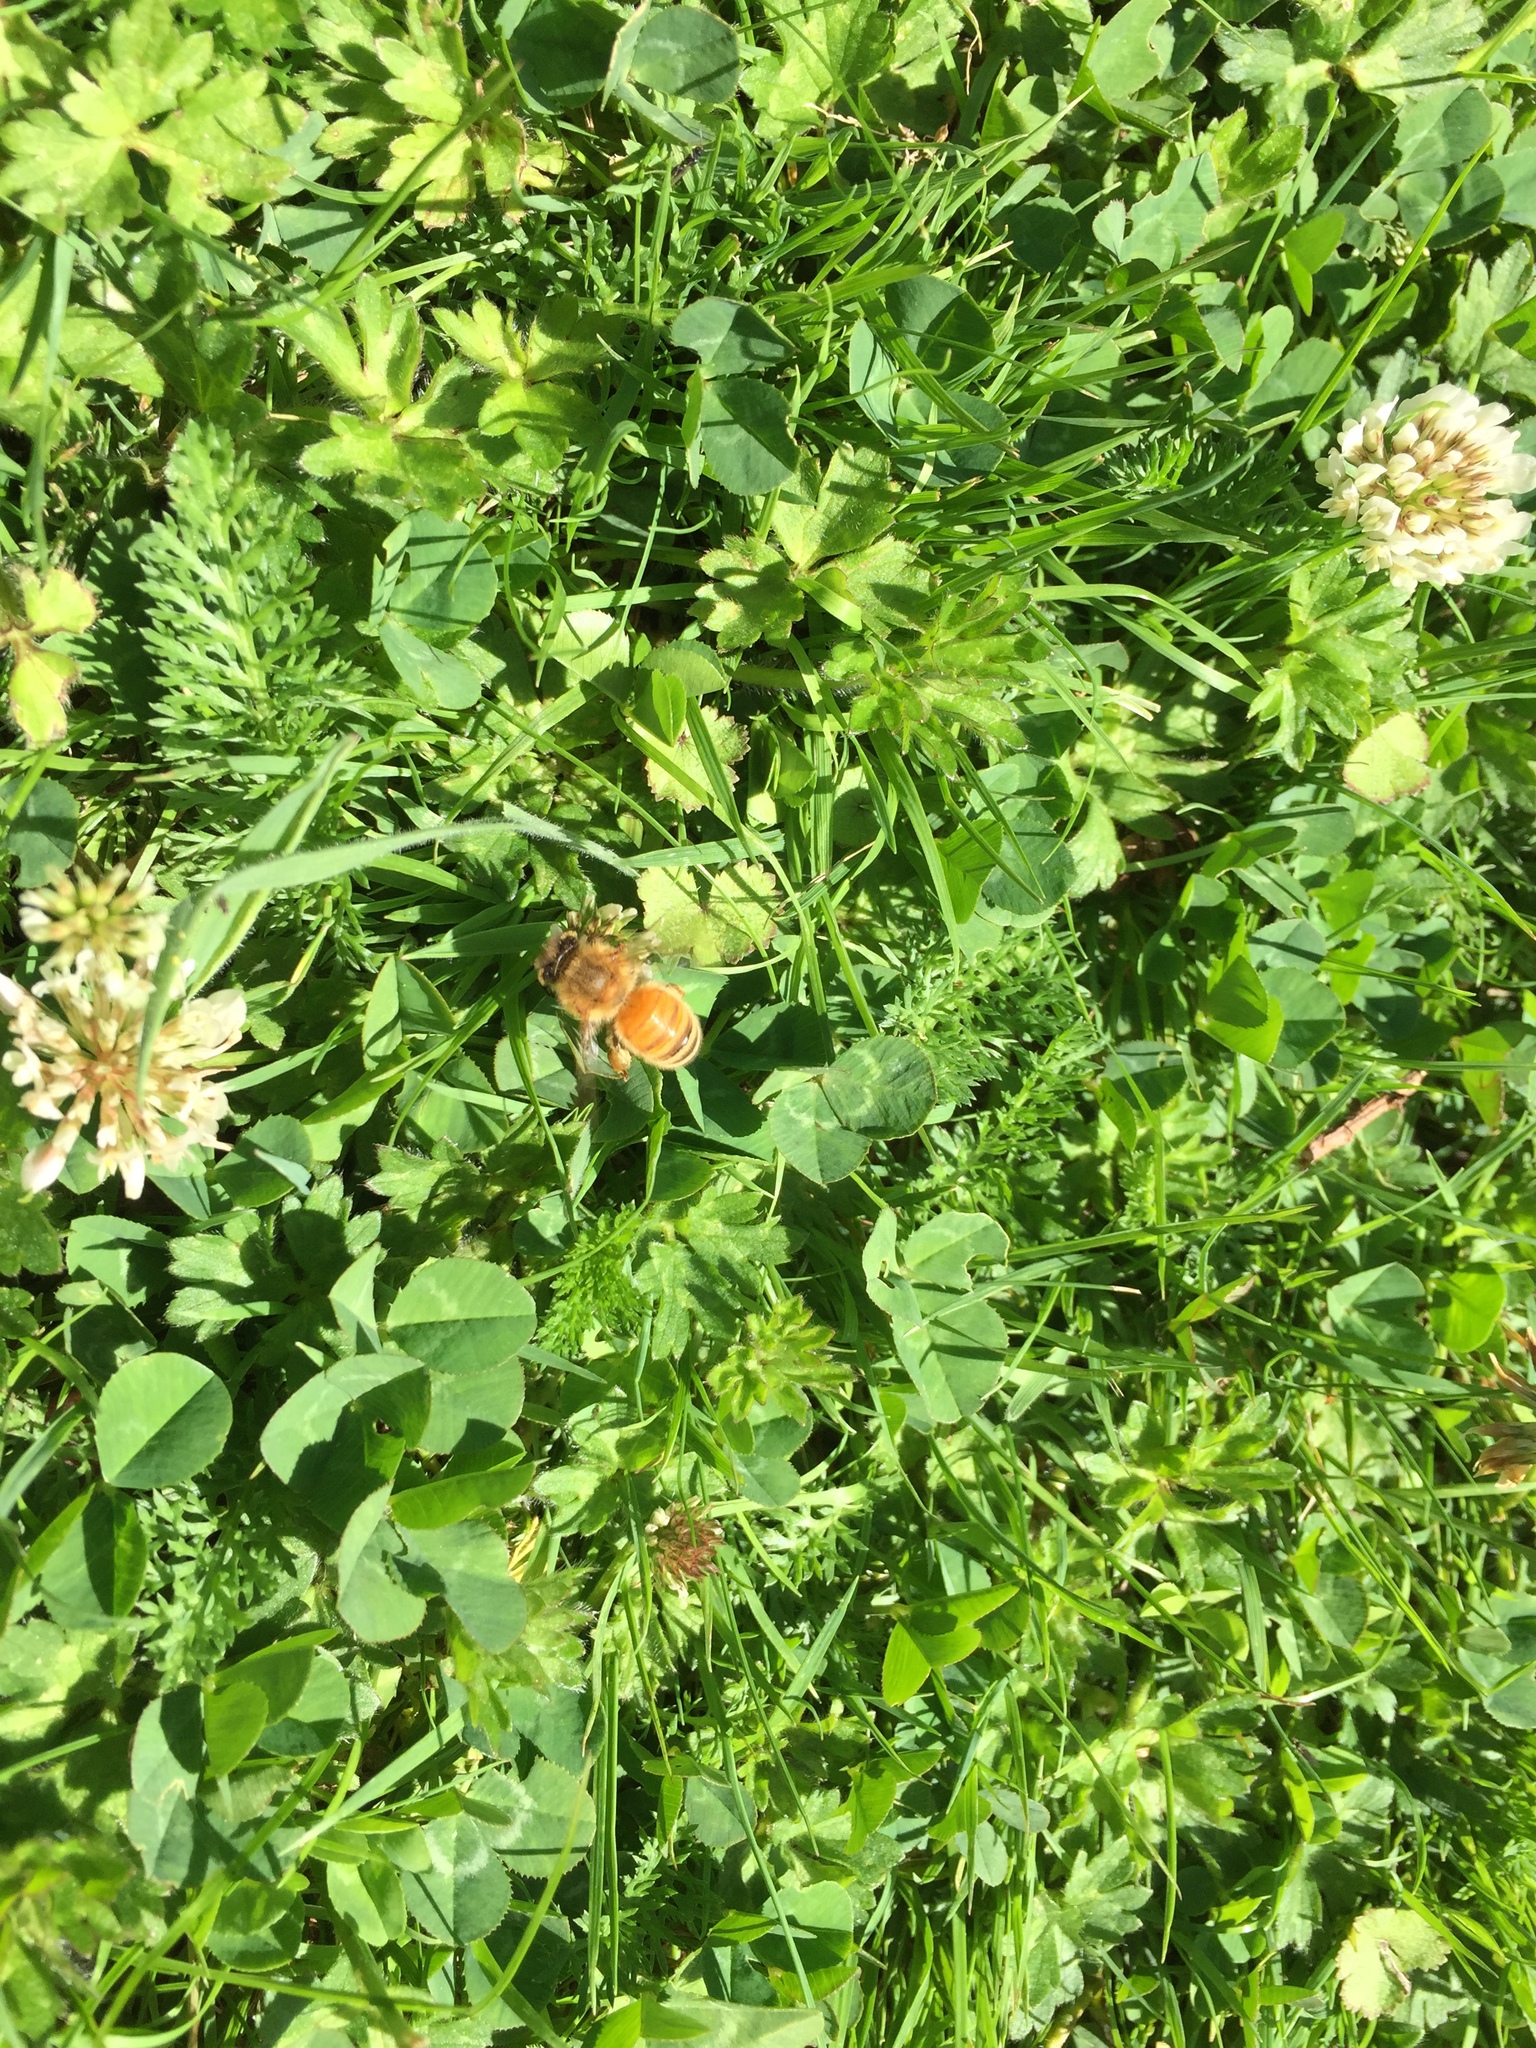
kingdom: Animalia
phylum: Arthropoda
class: Insecta
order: Hymenoptera
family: Apidae
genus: Apis
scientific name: Apis mellifera
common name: Honey bee
